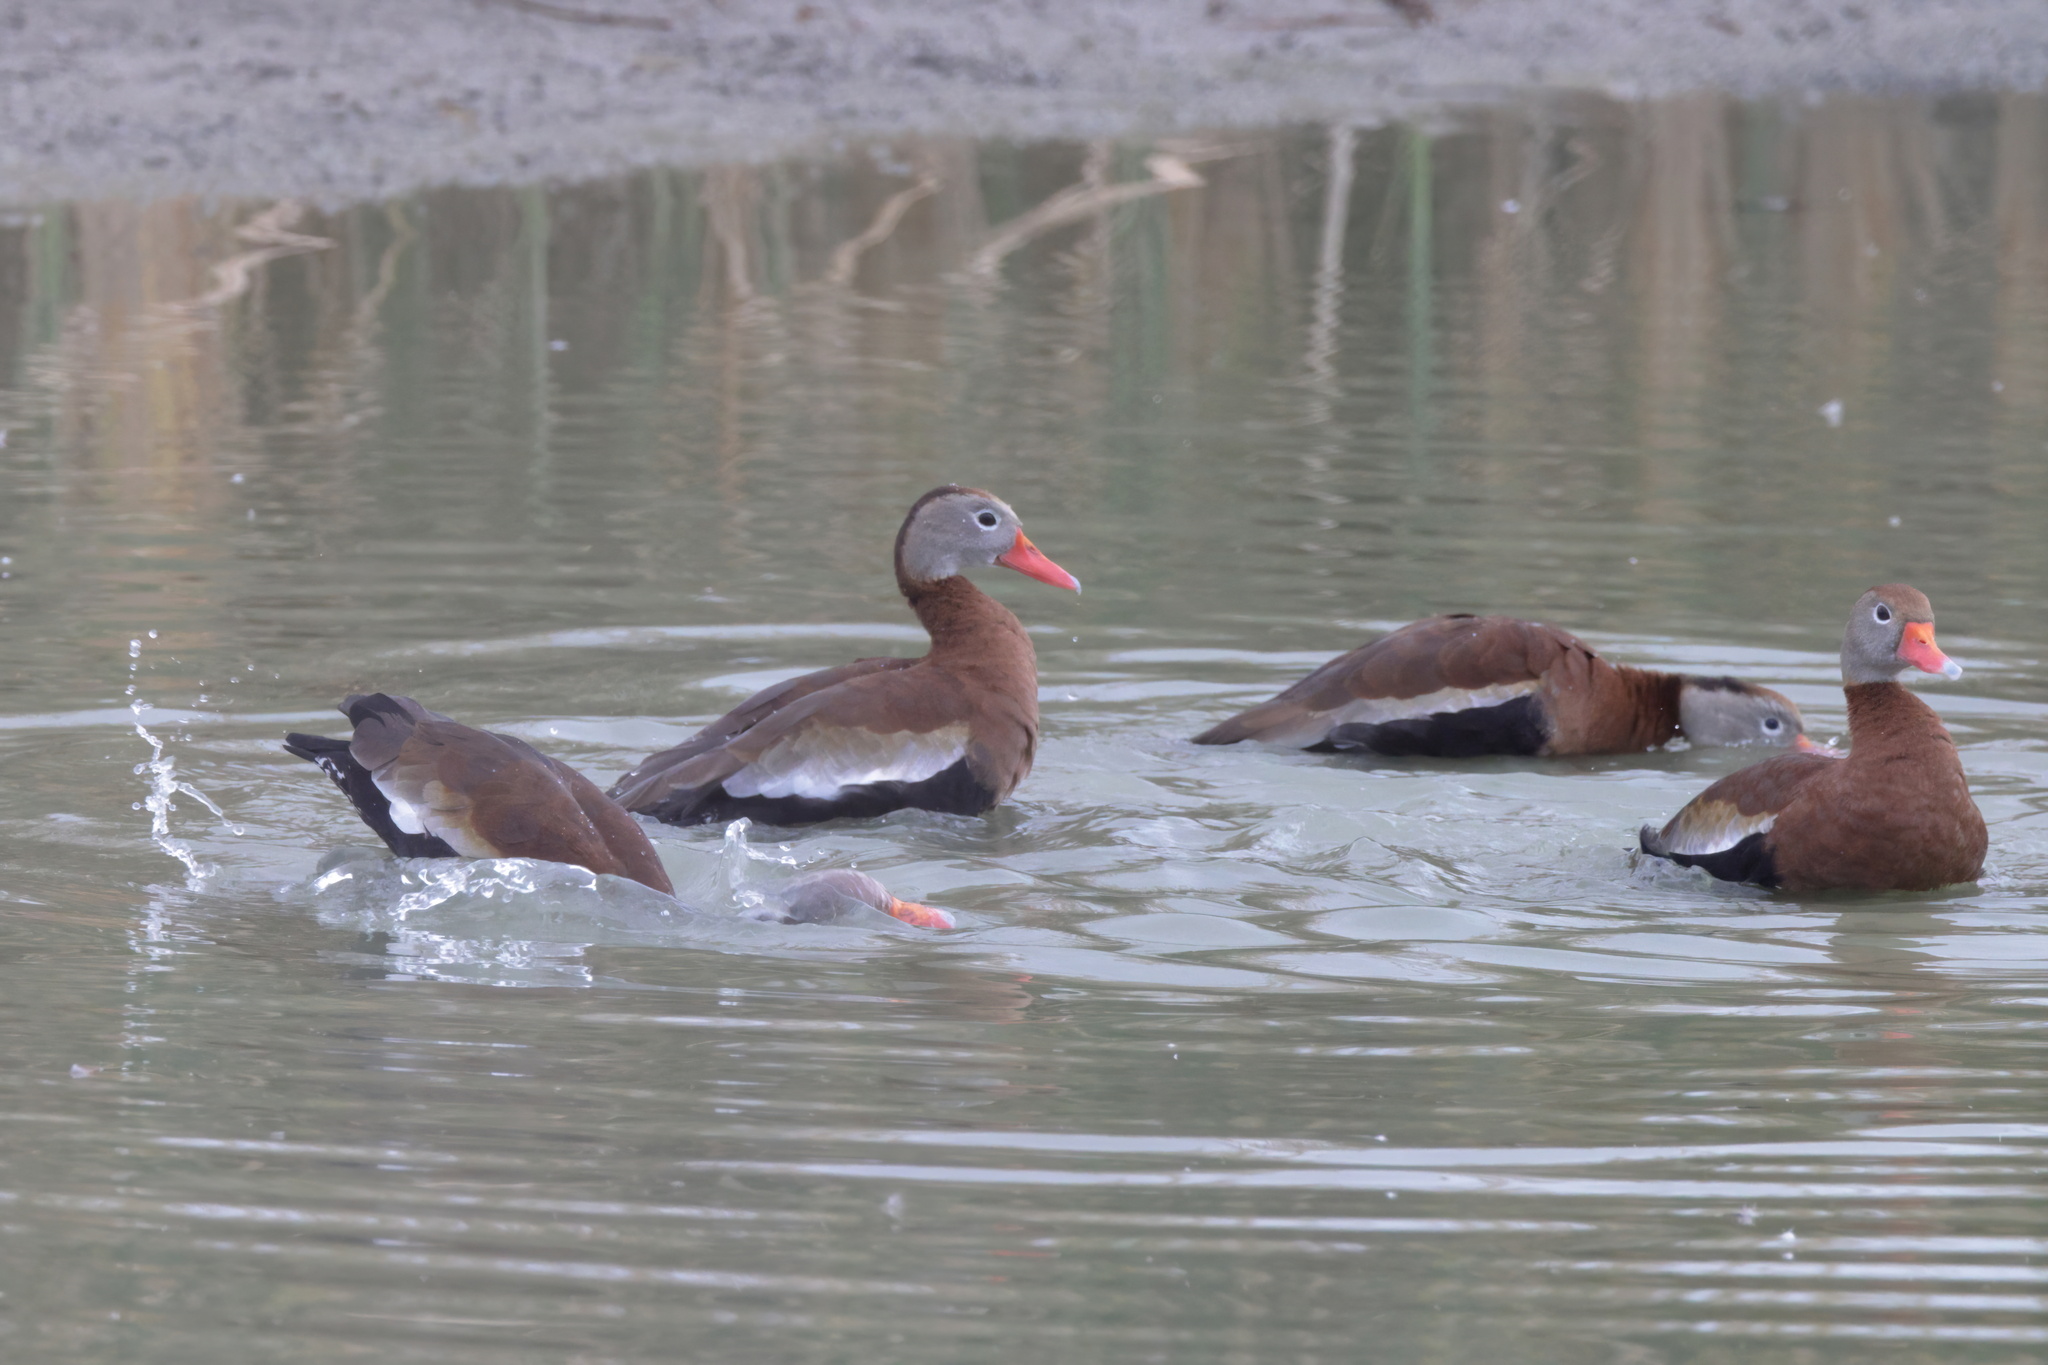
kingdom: Animalia
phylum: Chordata
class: Aves
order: Anseriformes
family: Anatidae
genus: Dendrocygna
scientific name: Dendrocygna autumnalis
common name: Black-bellied whistling duck
